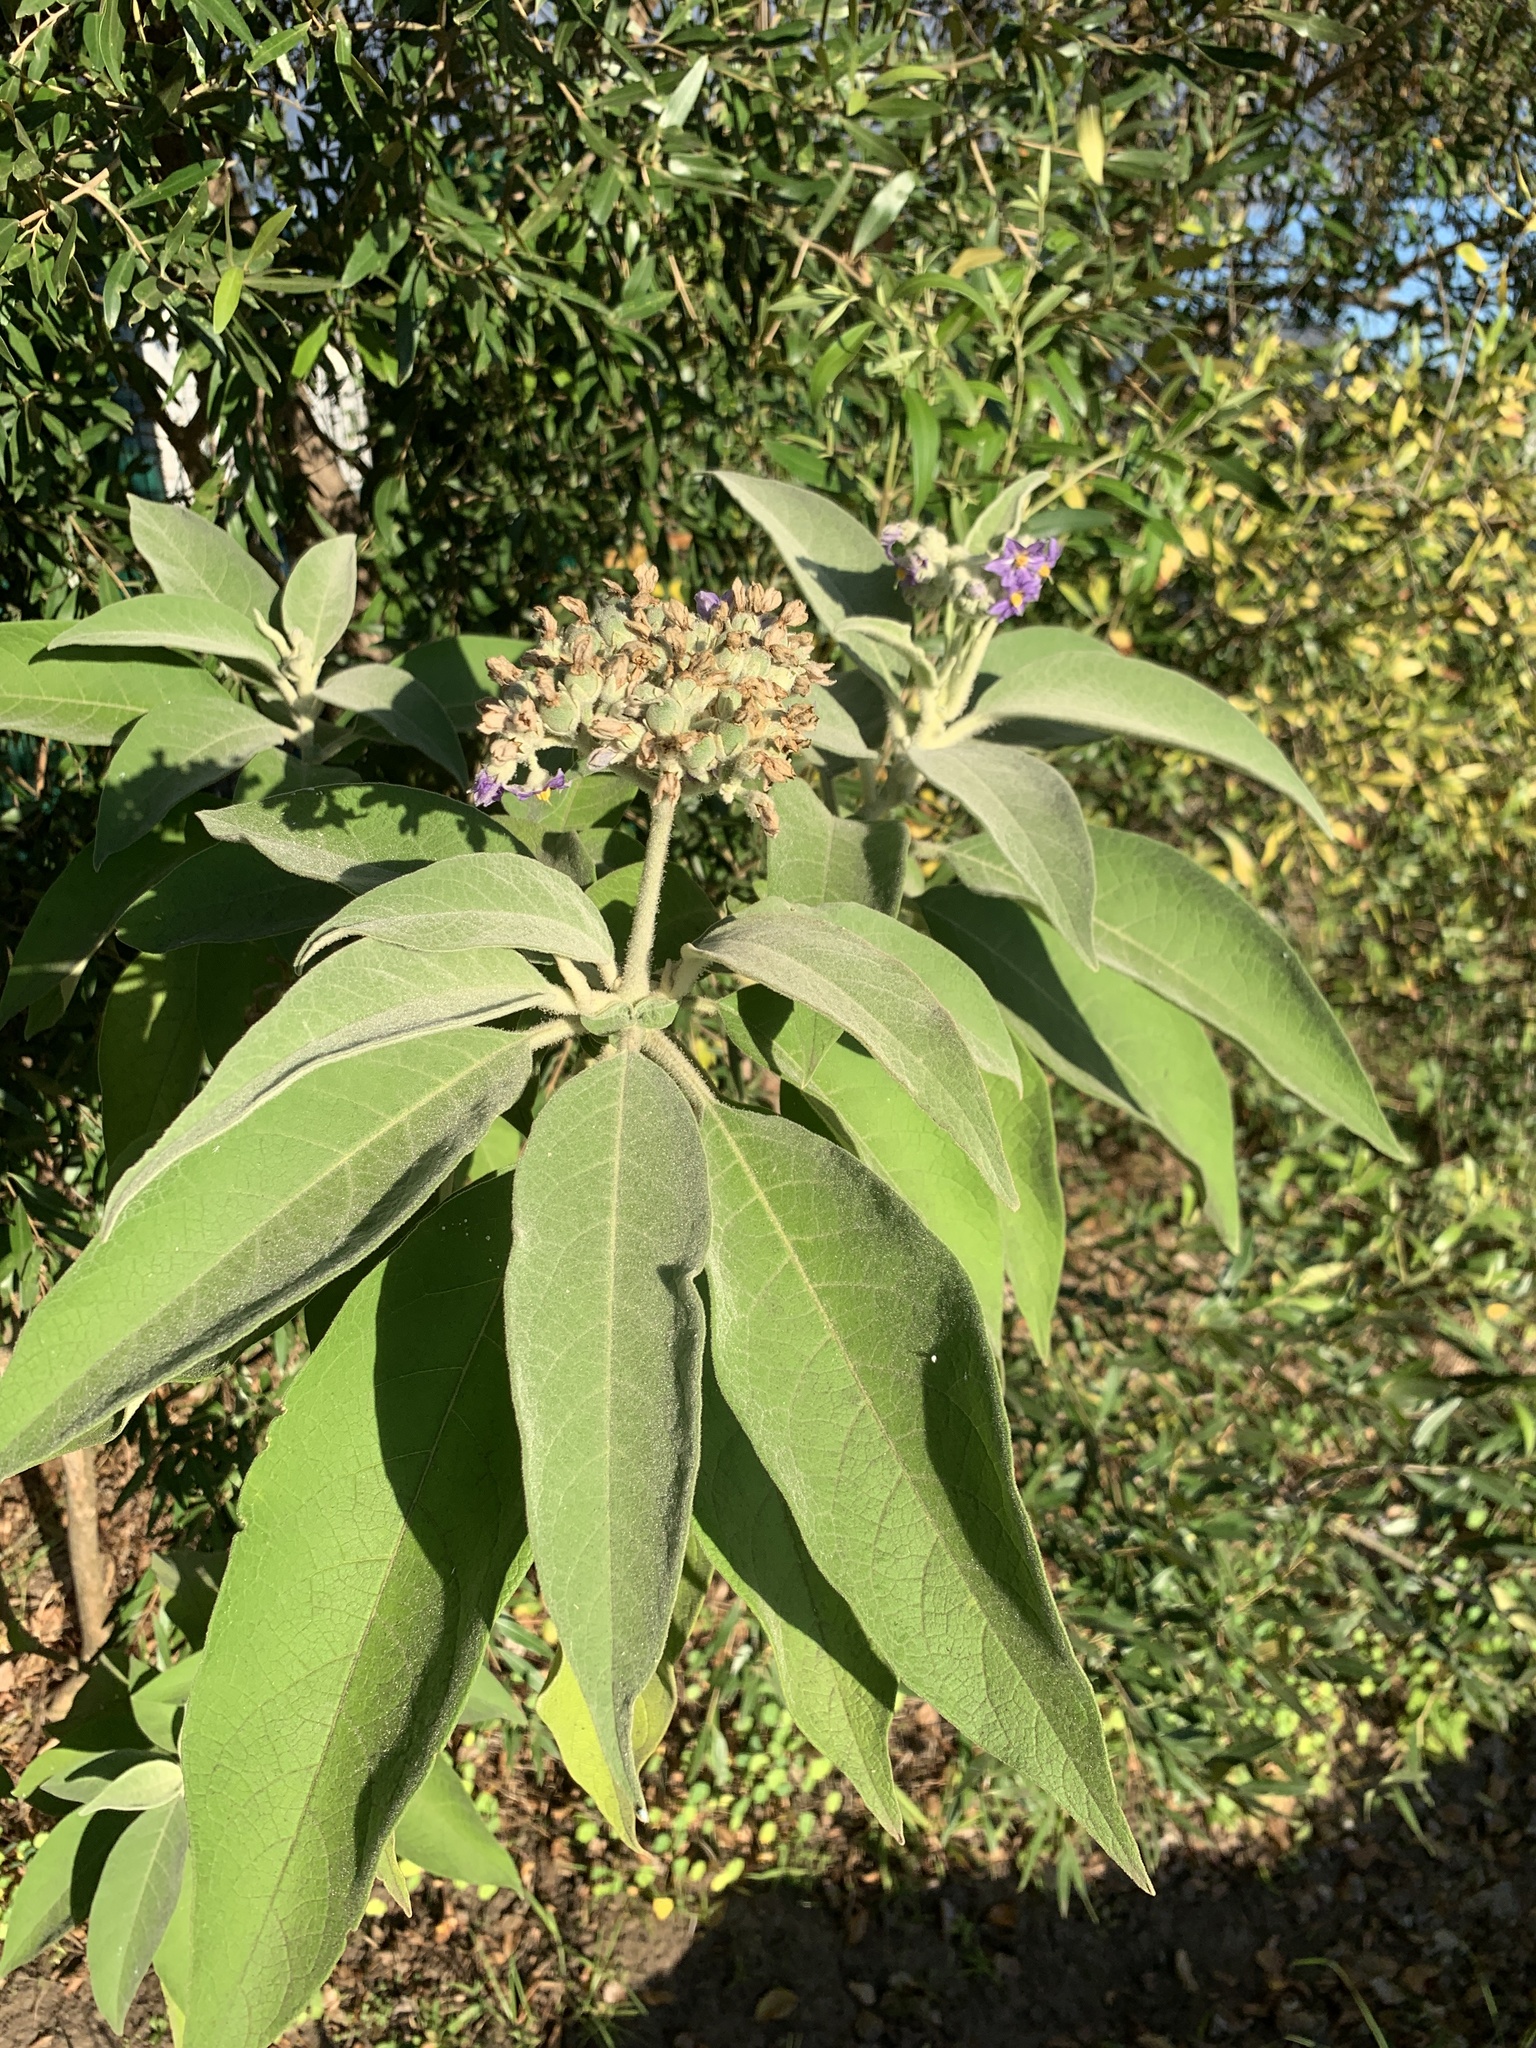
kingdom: Plantae
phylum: Tracheophyta
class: Magnoliopsida
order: Solanales
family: Solanaceae
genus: Solanum
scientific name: Solanum mauritianum
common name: Earleaf nightshade
